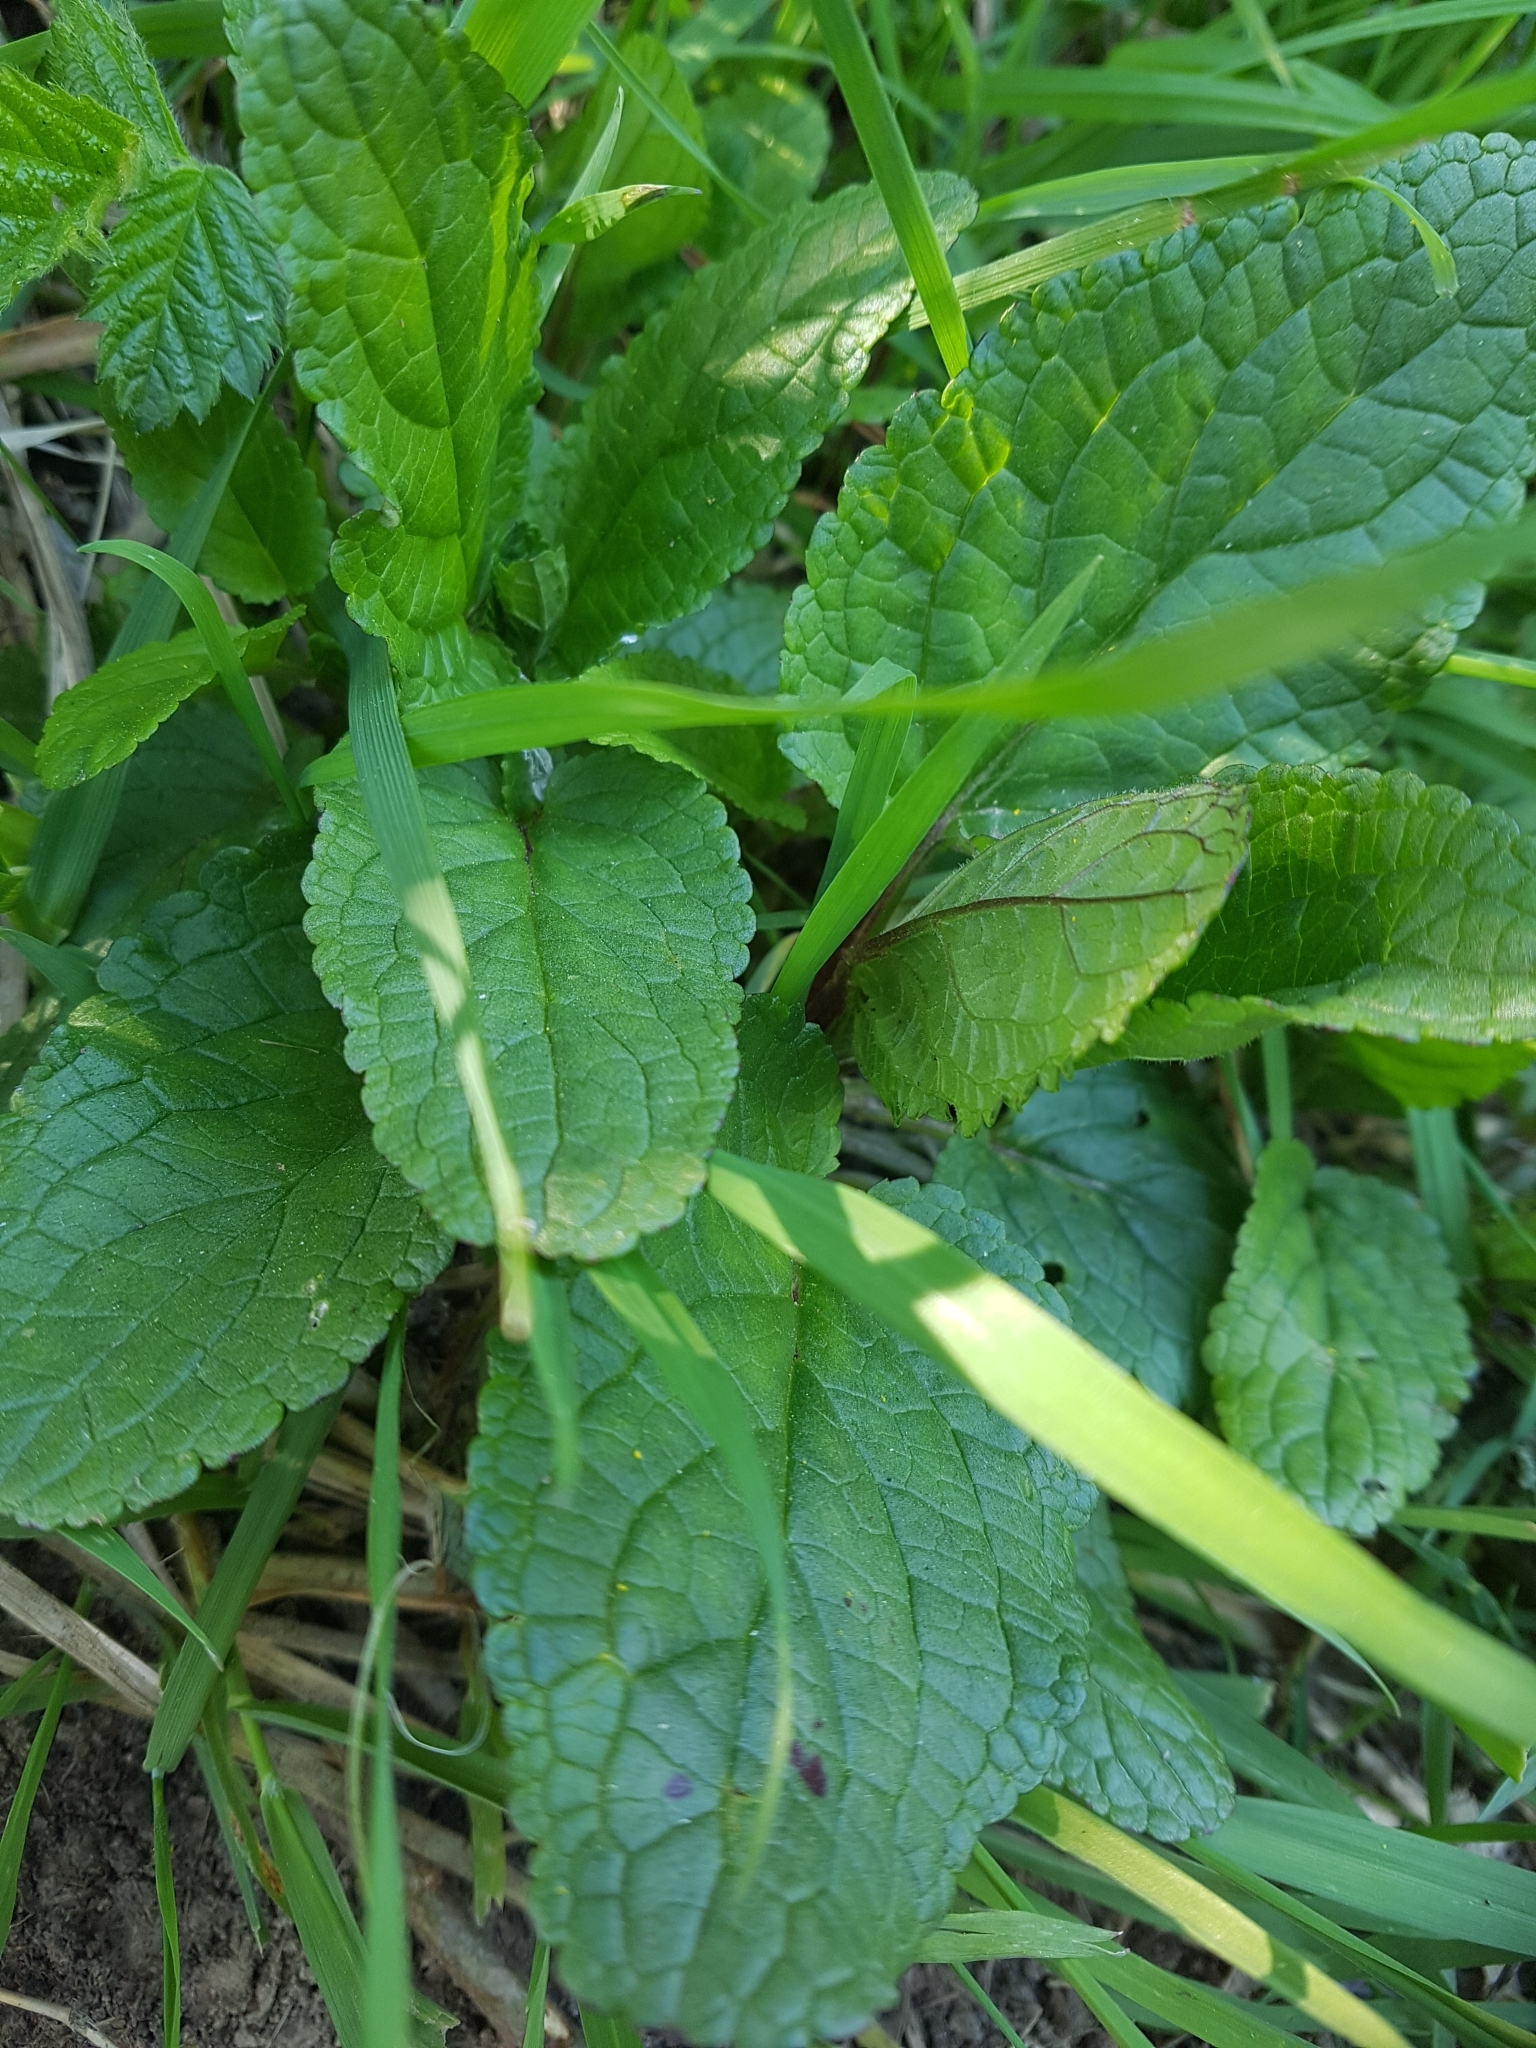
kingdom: Plantae
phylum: Tracheophyta
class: Magnoliopsida
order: Lamiales
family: Lamiaceae
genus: Stachys
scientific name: Stachys sylvatica
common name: Hedge woundwort
